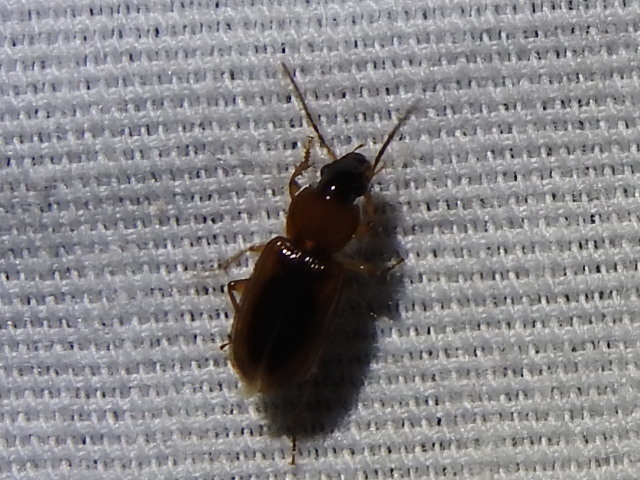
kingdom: Animalia
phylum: Arthropoda
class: Insecta
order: Coleoptera
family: Carabidae
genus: Stenolophus
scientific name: Stenolophus lecontei
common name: Leconte's seedcorn beetle
